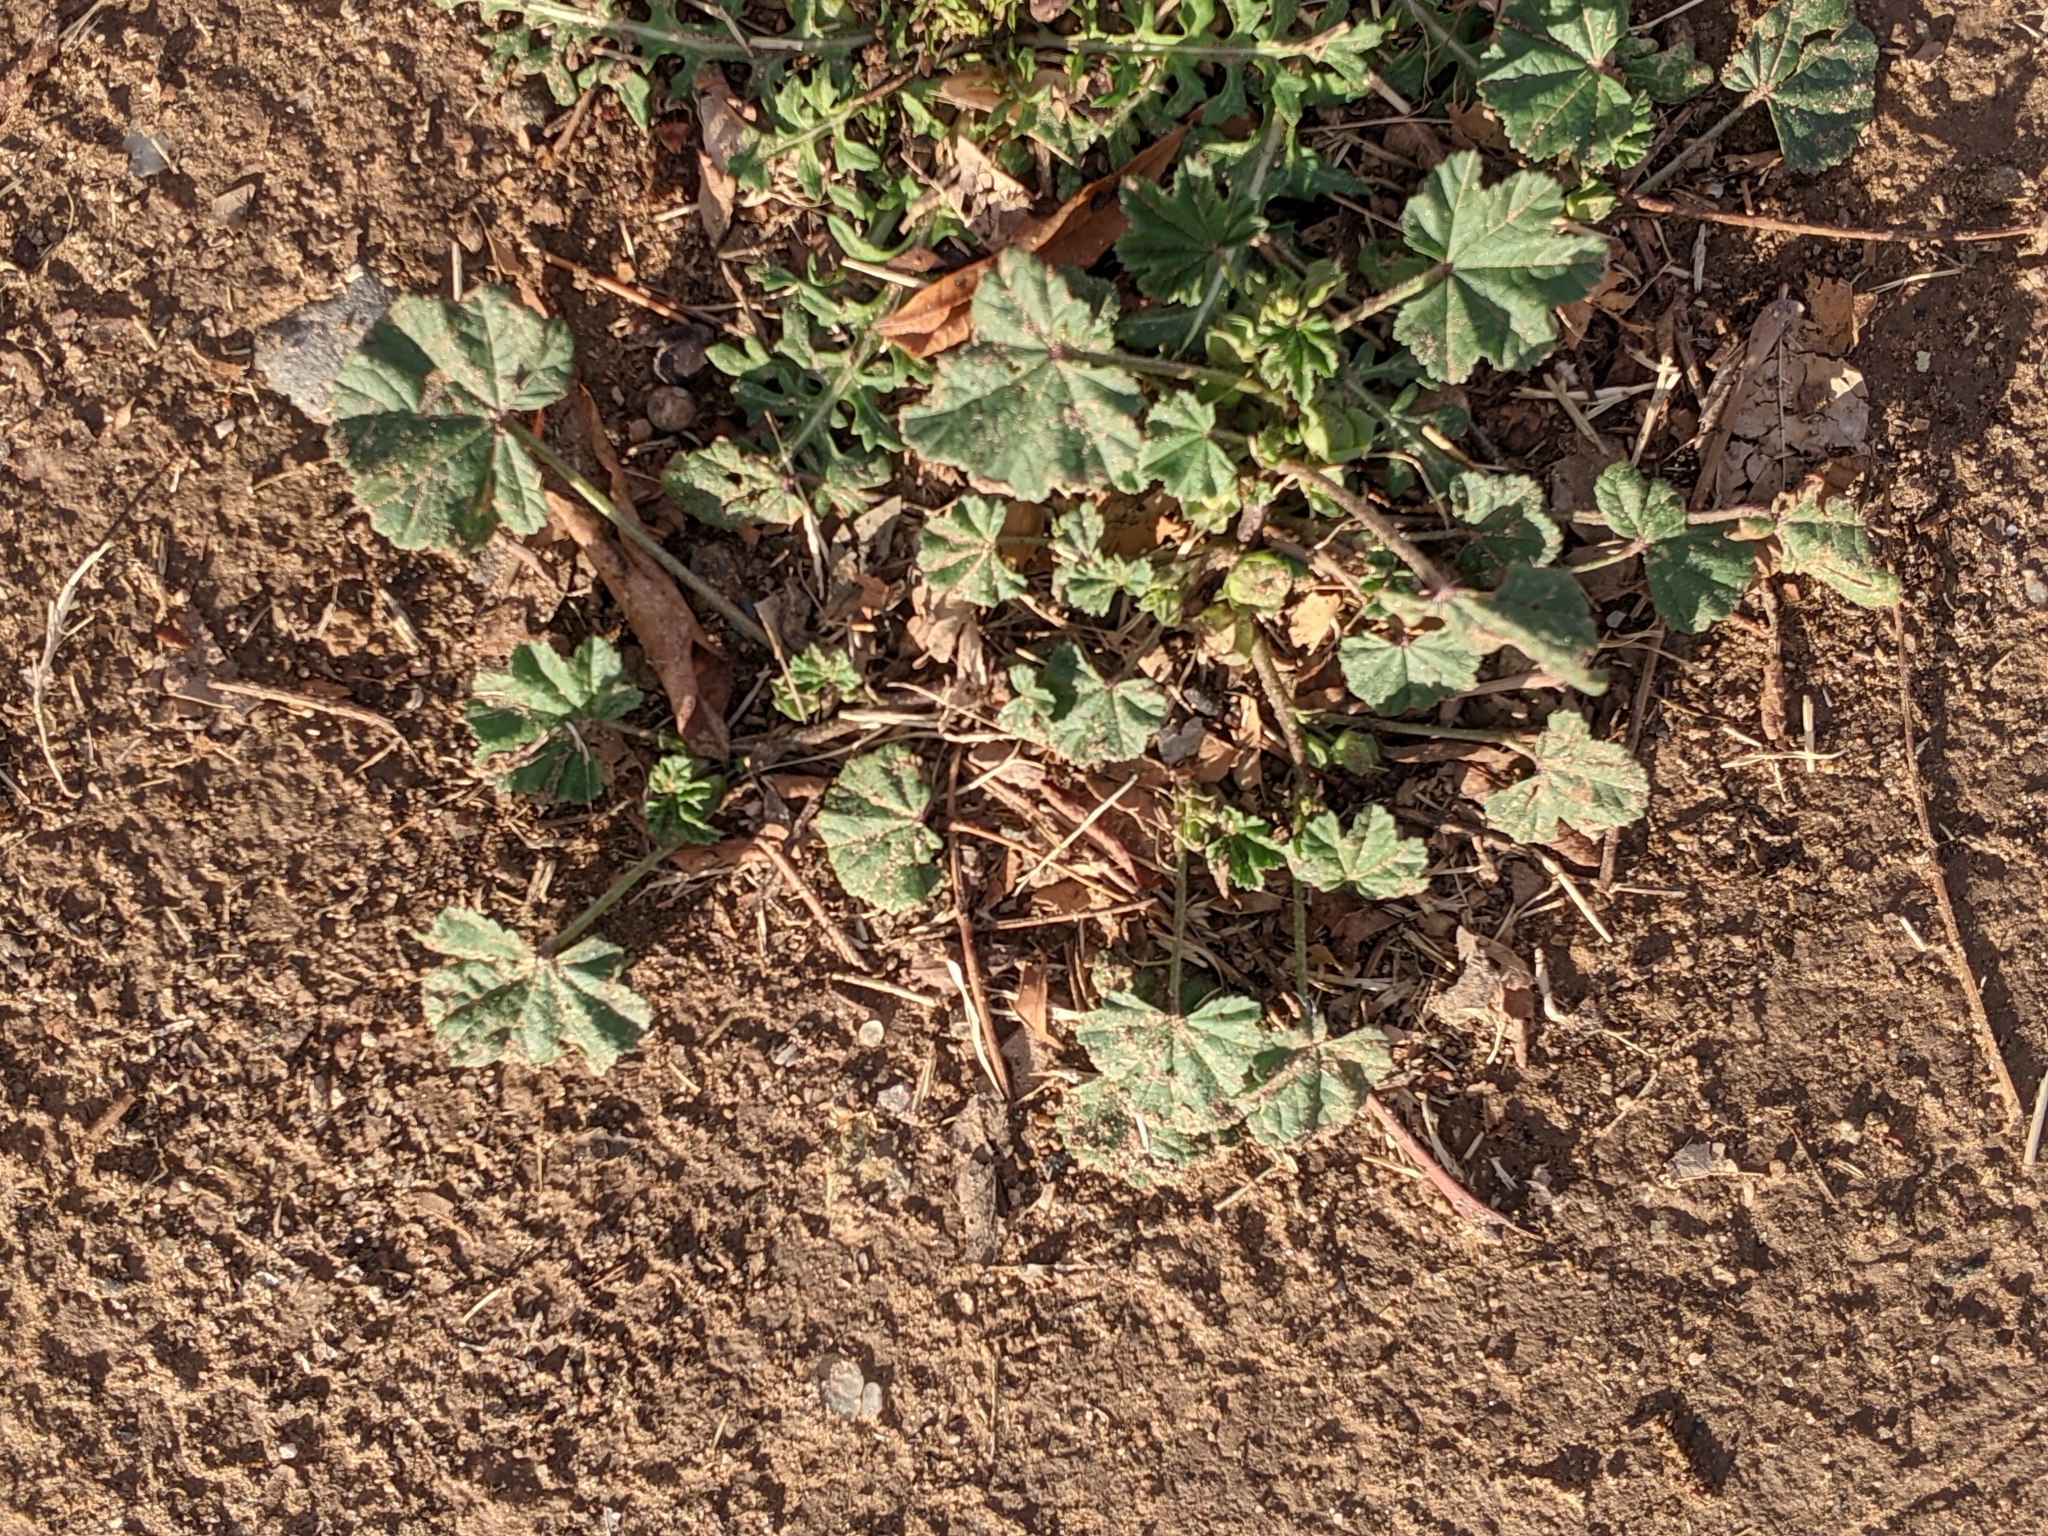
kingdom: Plantae
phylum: Tracheophyta
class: Magnoliopsida
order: Malvales
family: Malvaceae
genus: Malva
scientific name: Malva parviflora
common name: Least mallow
